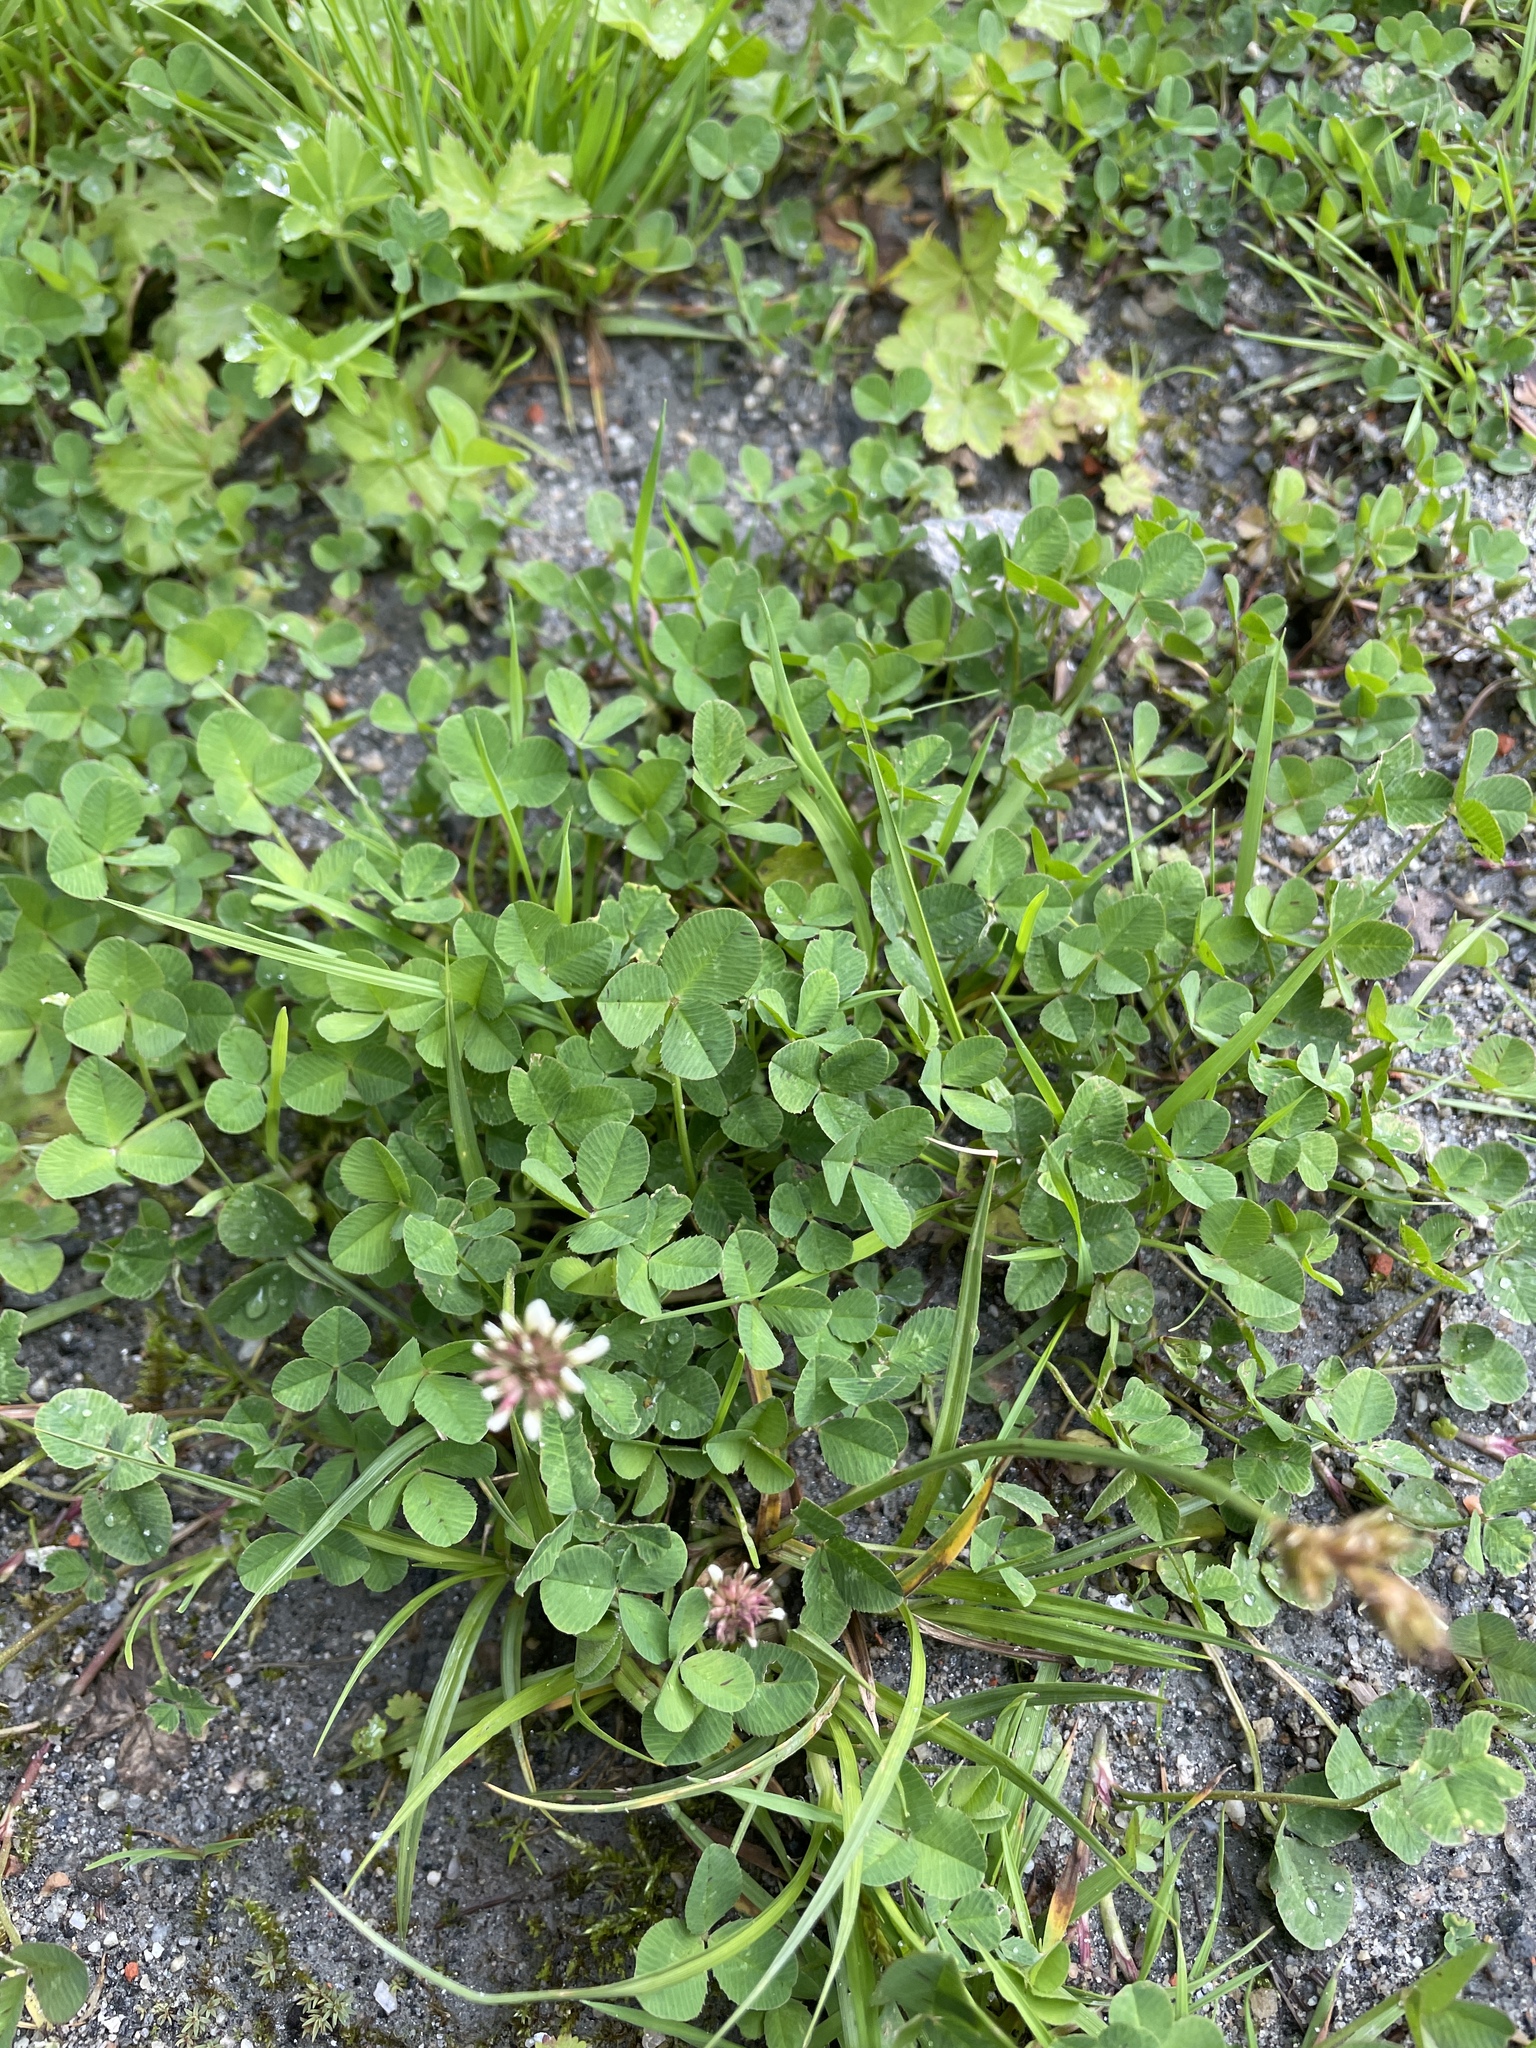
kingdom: Plantae
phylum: Tracheophyta
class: Magnoliopsida
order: Fabales
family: Fabaceae
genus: Trifolium
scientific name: Trifolium repens
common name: White clover
